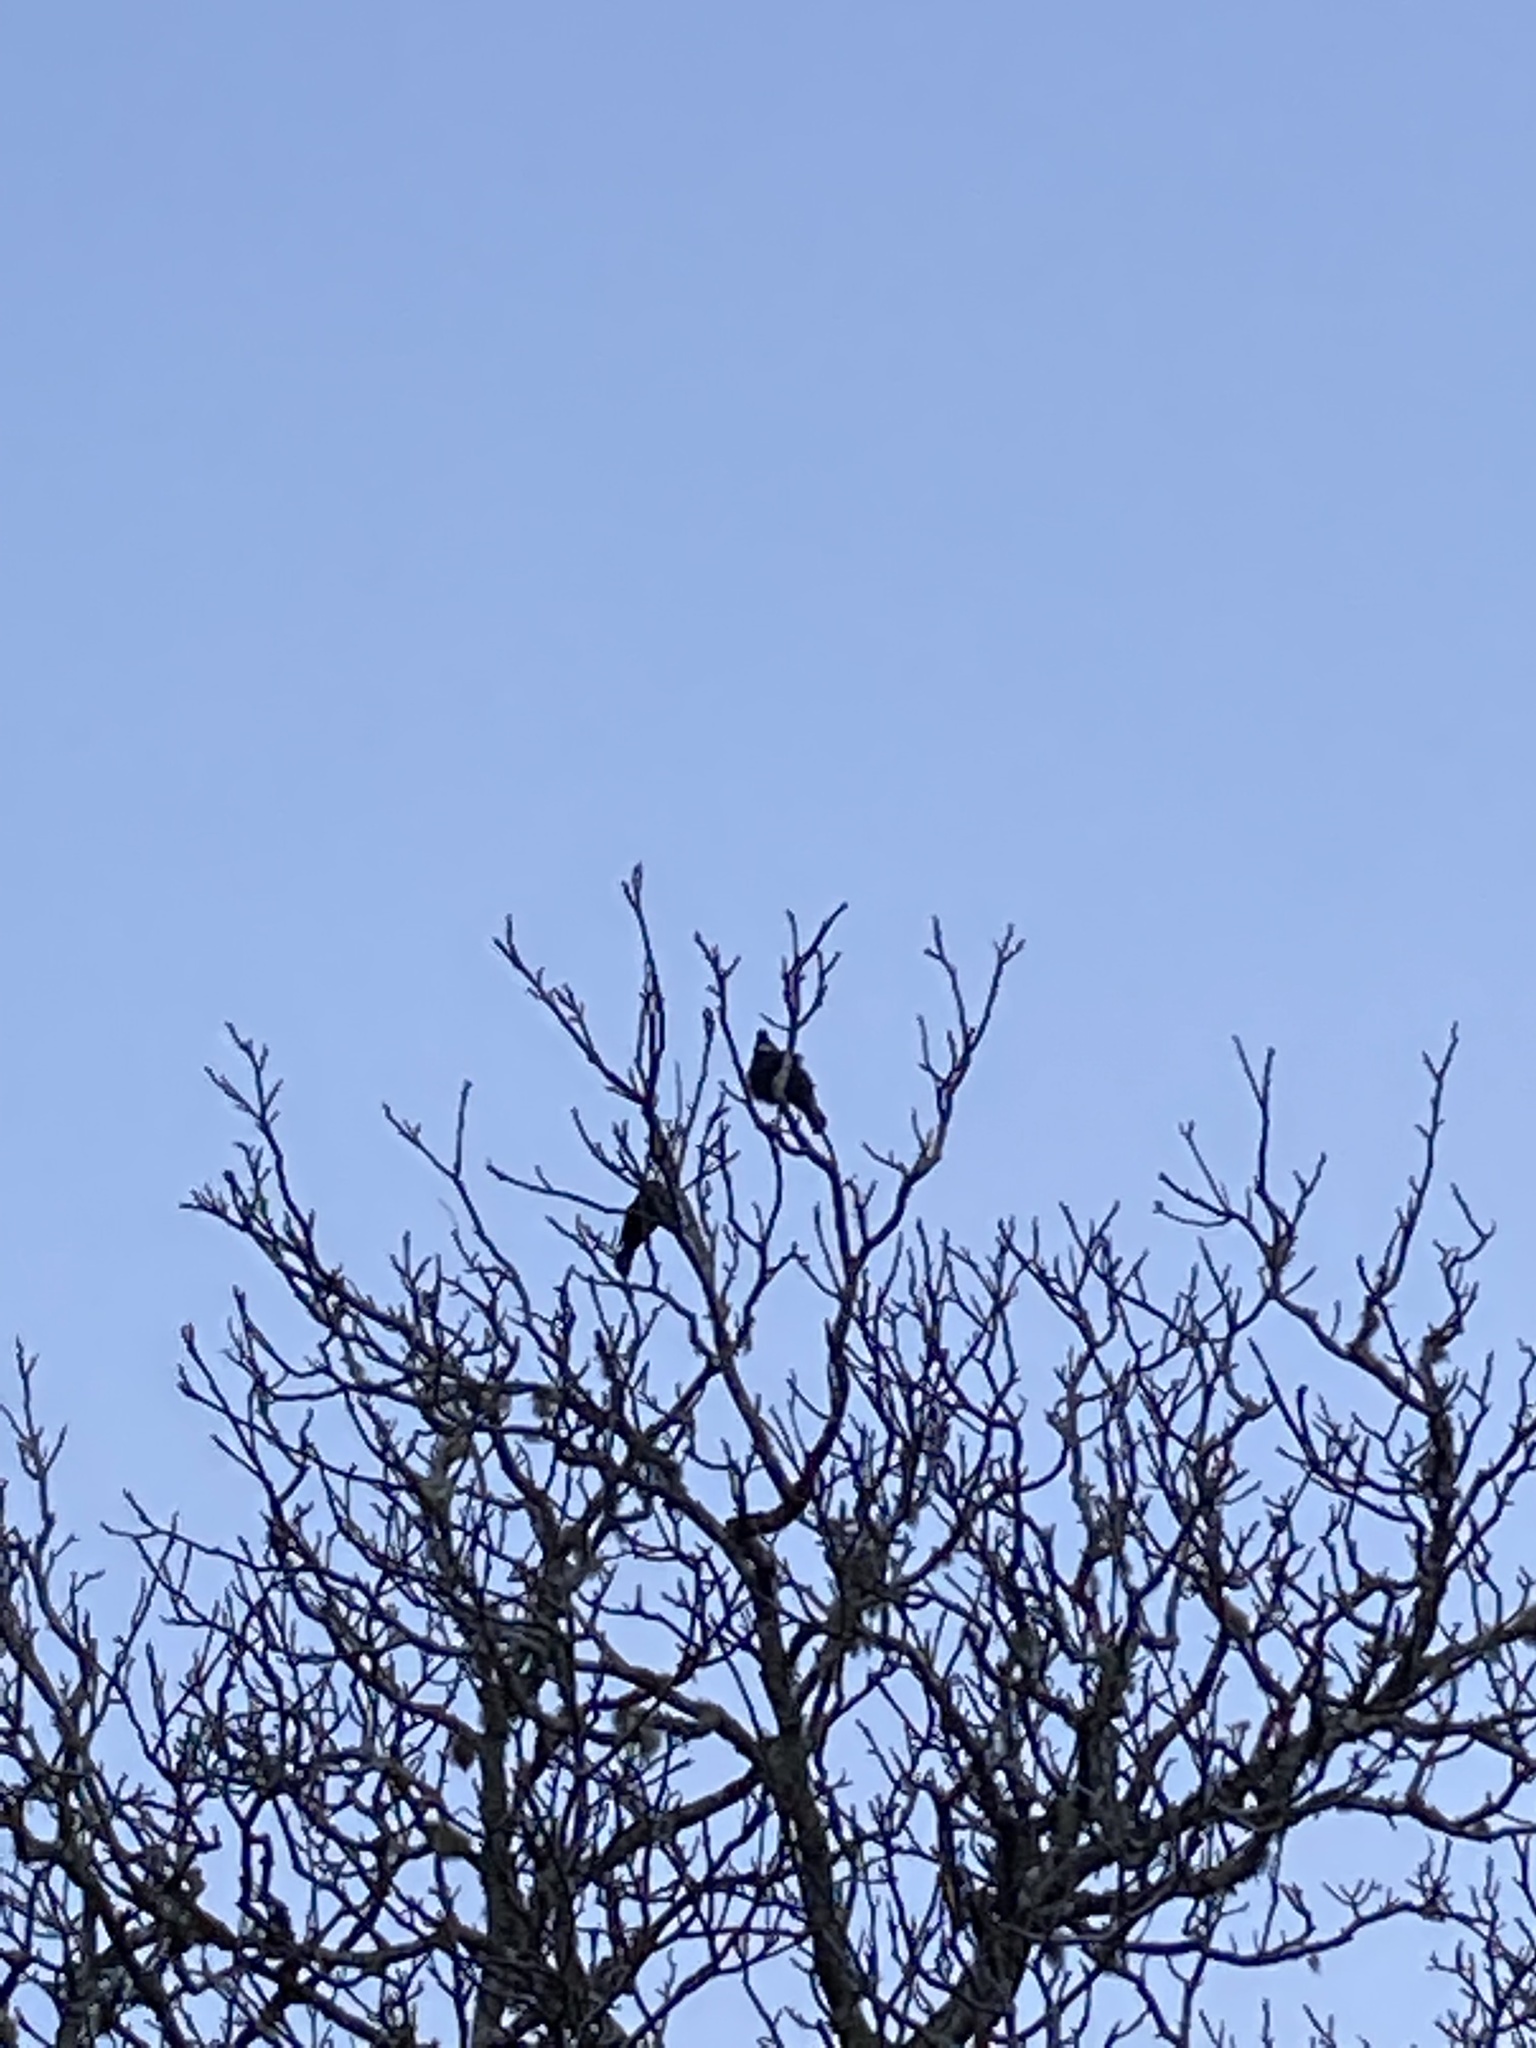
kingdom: Animalia
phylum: Chordata
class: Aves
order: Passeriformes
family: Meliphagidae
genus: Prosthemadera
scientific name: Prosthemadera novaeseelandiae
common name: Tui
